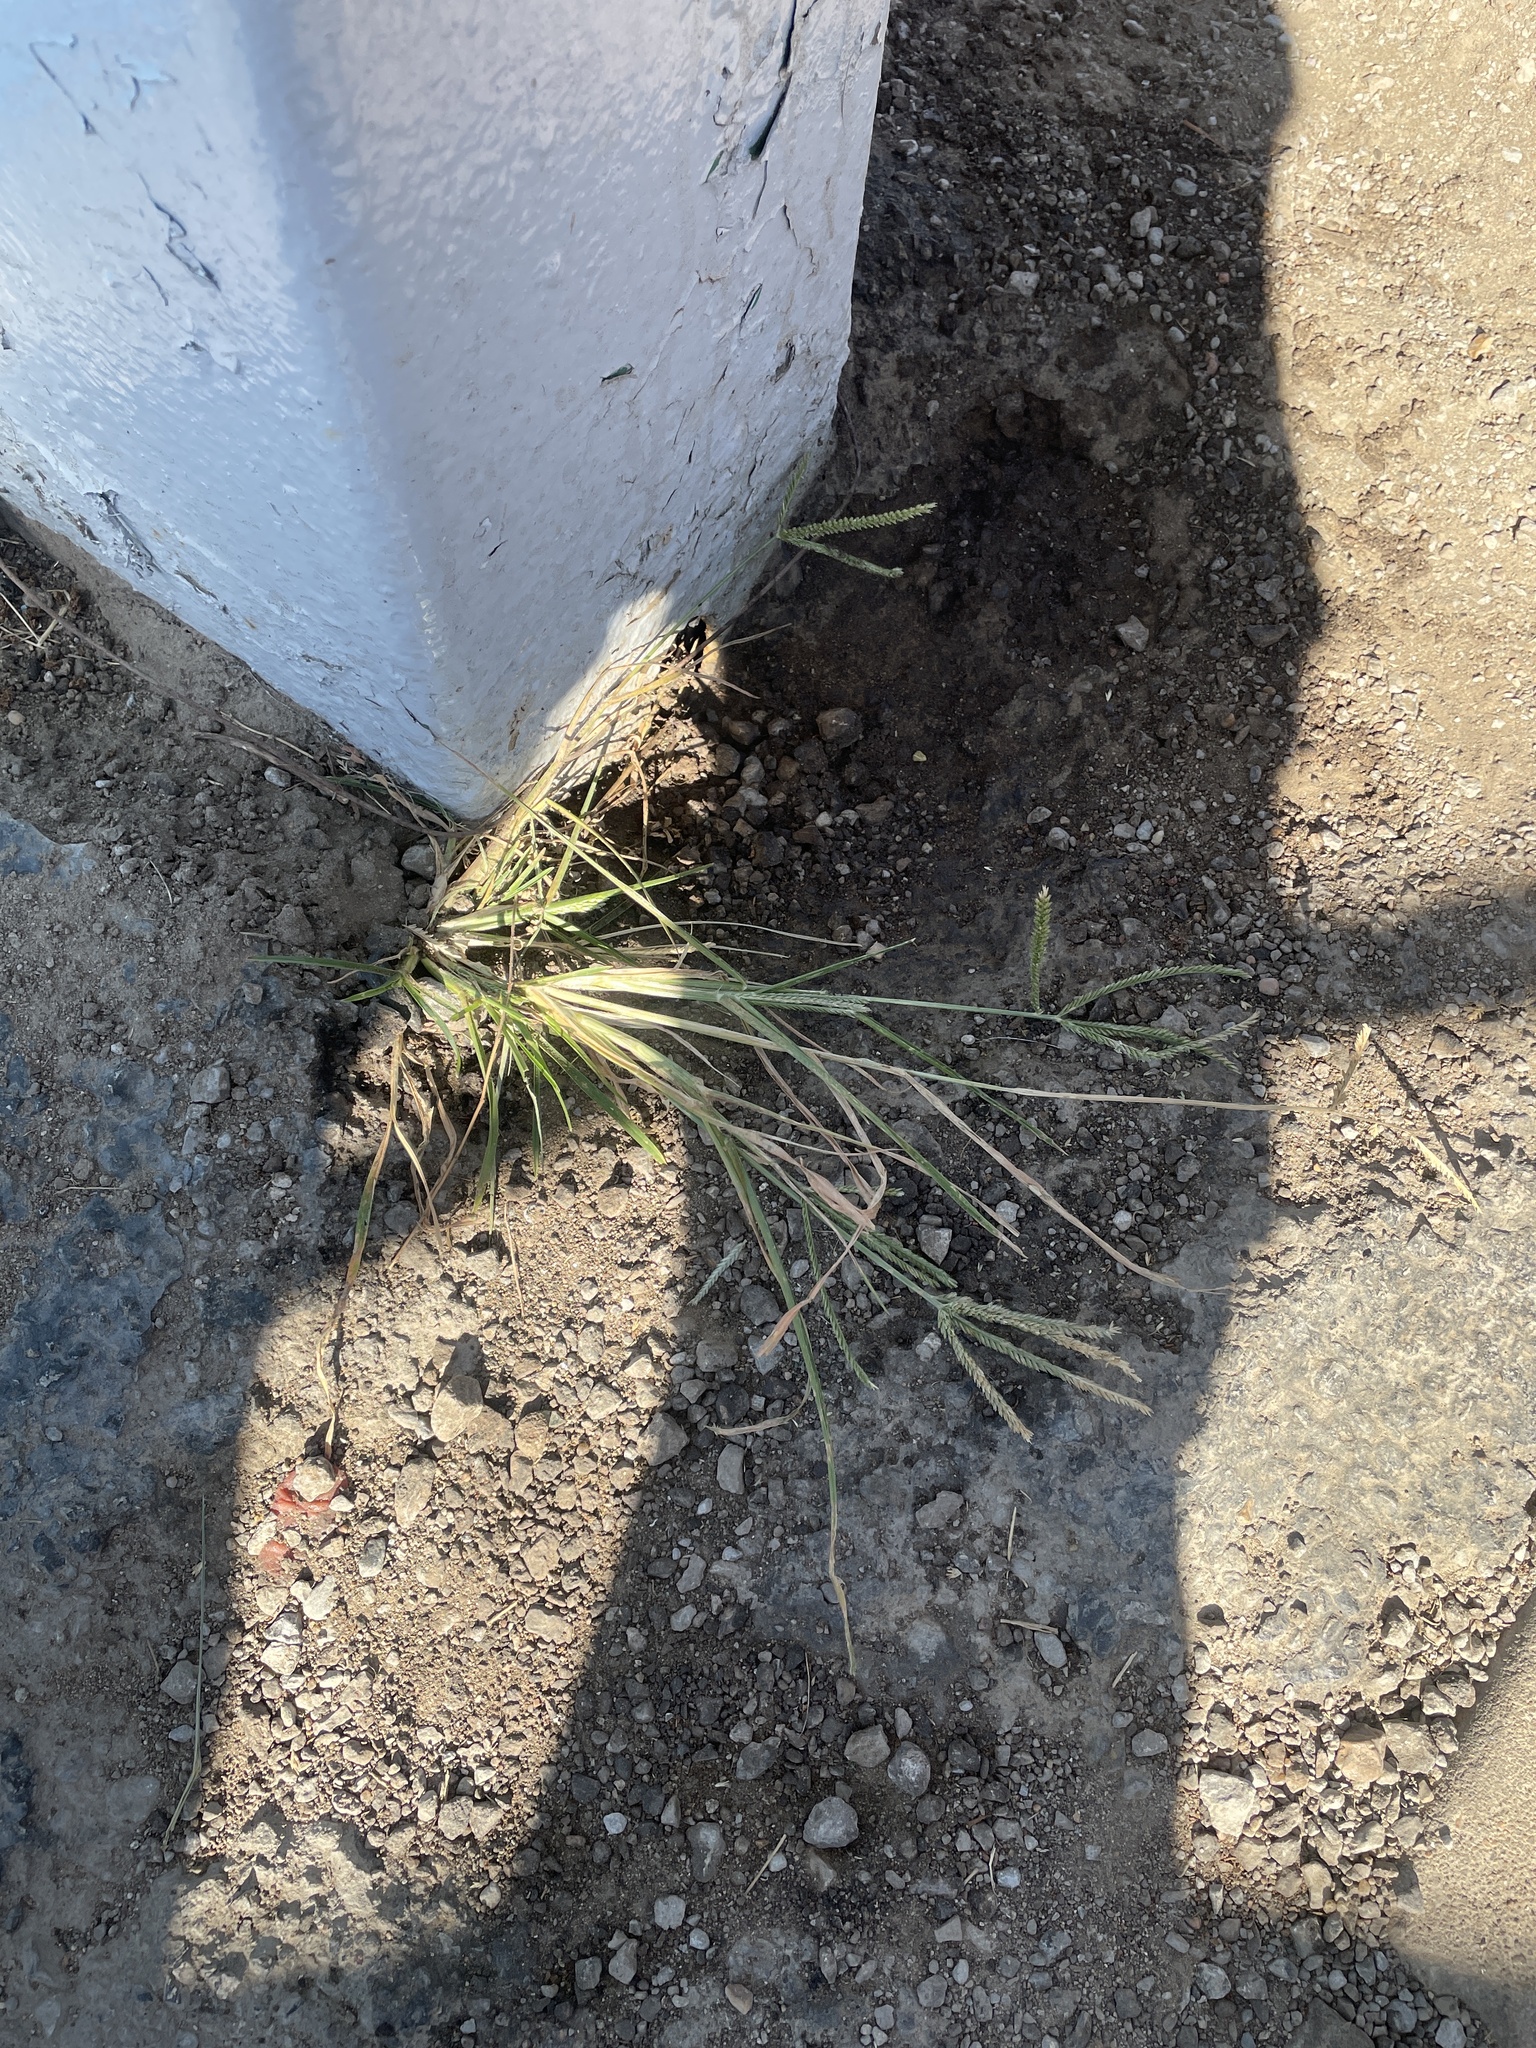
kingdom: Plantae
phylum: Tracheophyta
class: Liliopsida
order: Poales
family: Poaceae
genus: Eleusine
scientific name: Eleusine indica
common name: Yard-grass
